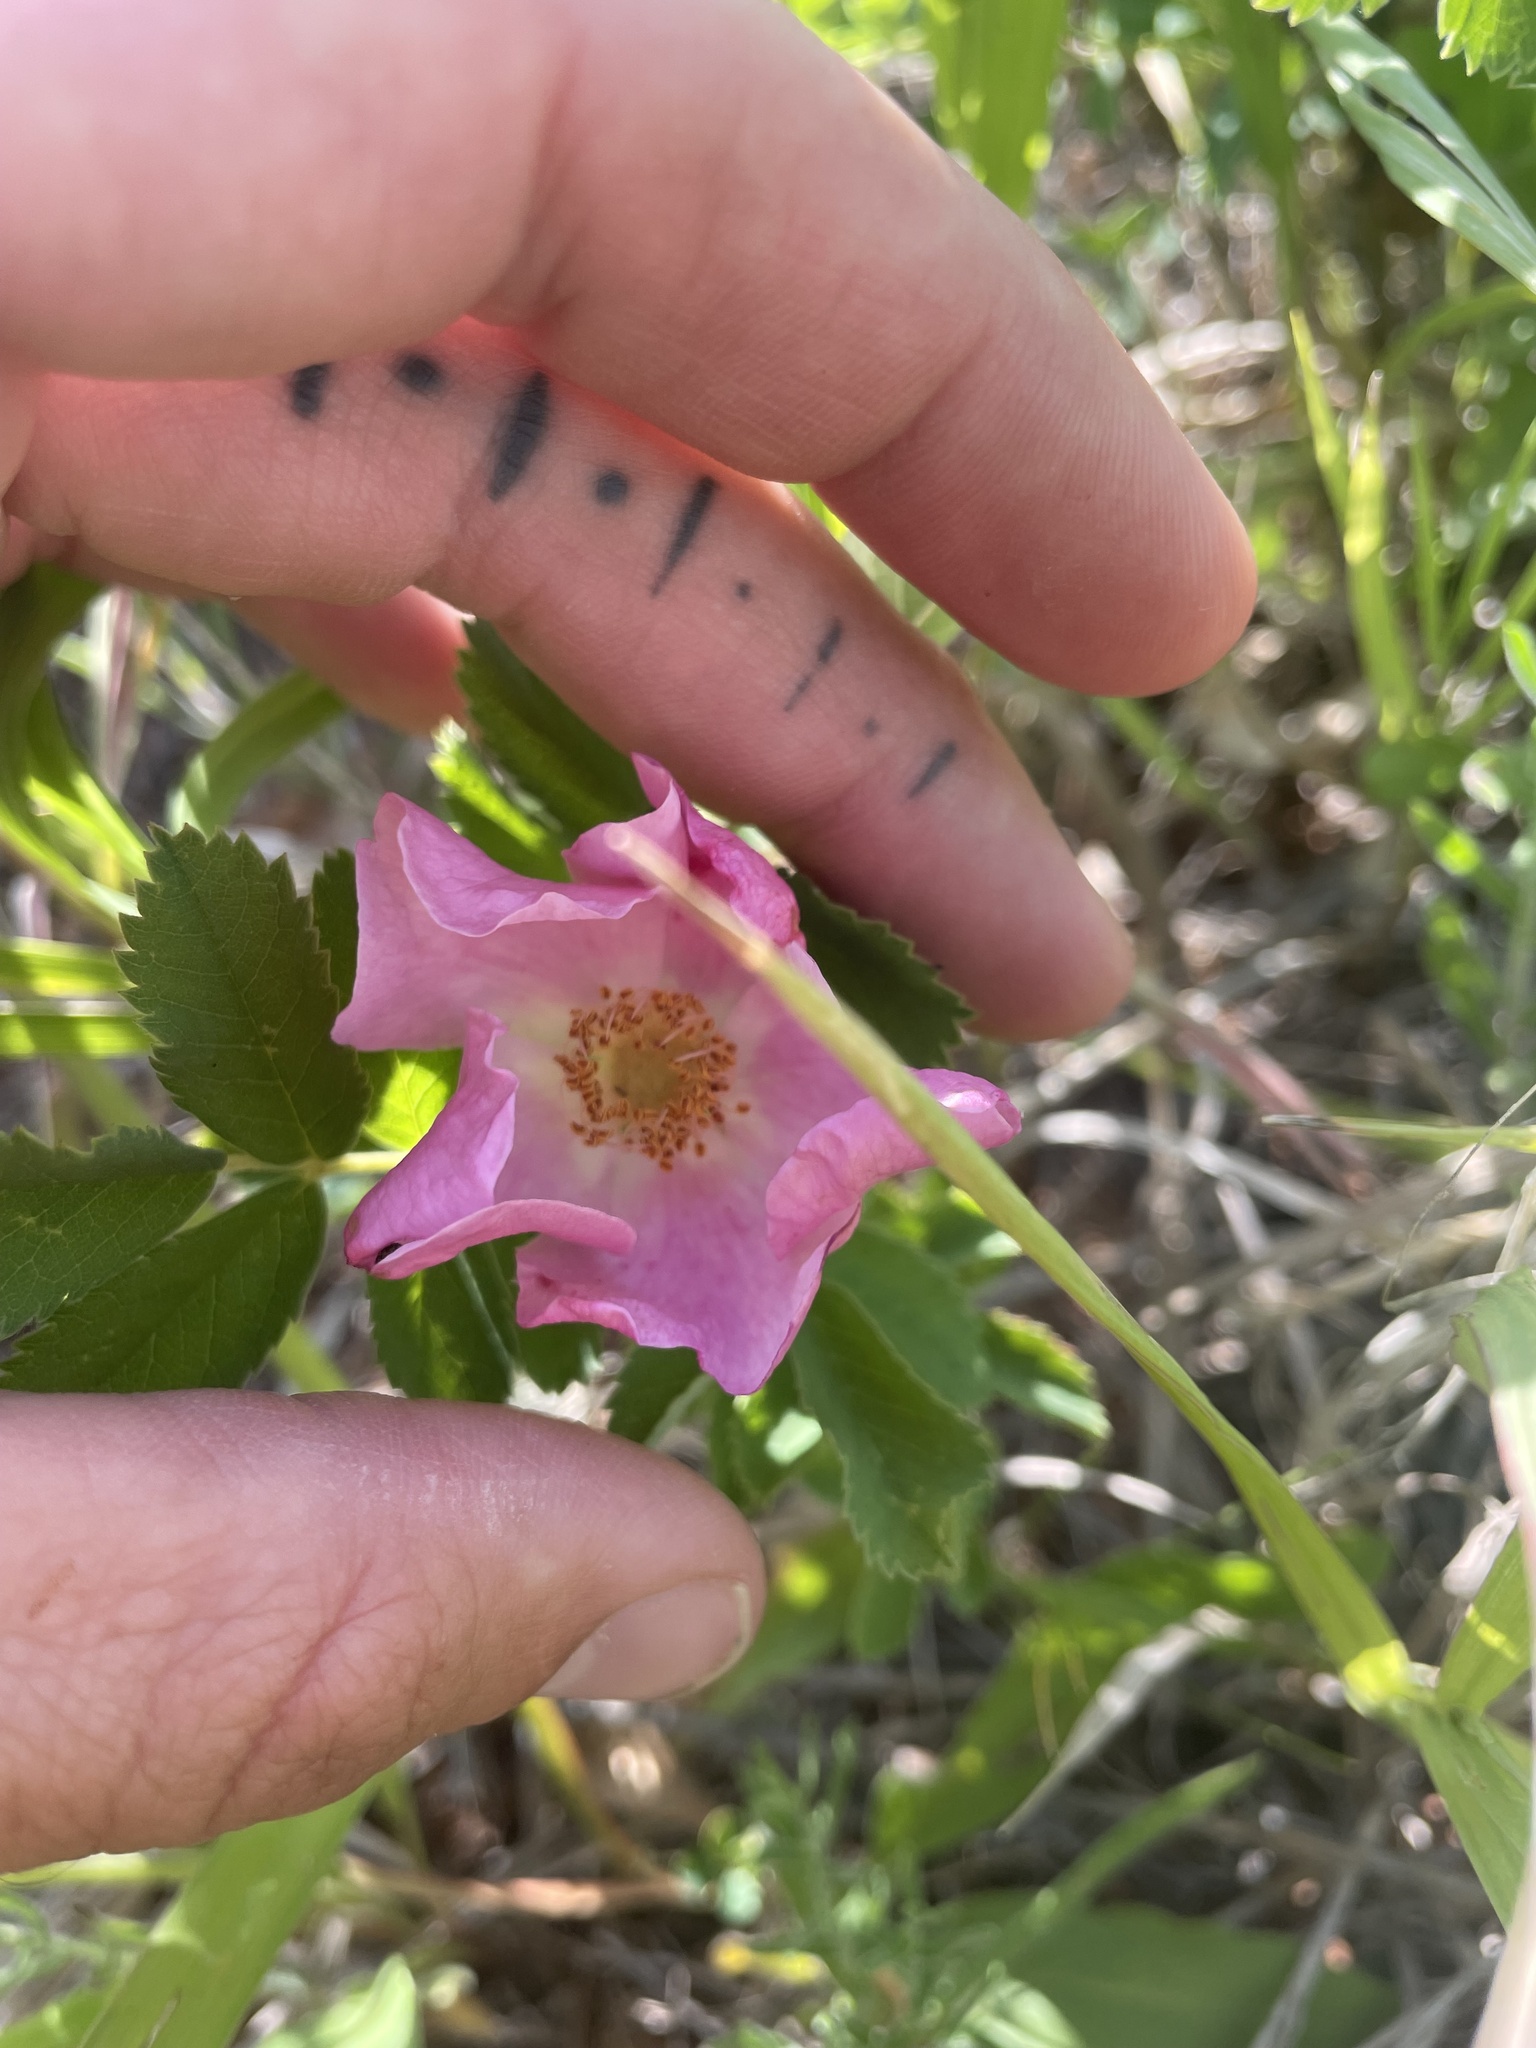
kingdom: Plantae
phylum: Tracheophyta
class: Magnoliopsida
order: Rosales
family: Rosaceae
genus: Rosa
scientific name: Rosa arkansana
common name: Prairie rose
